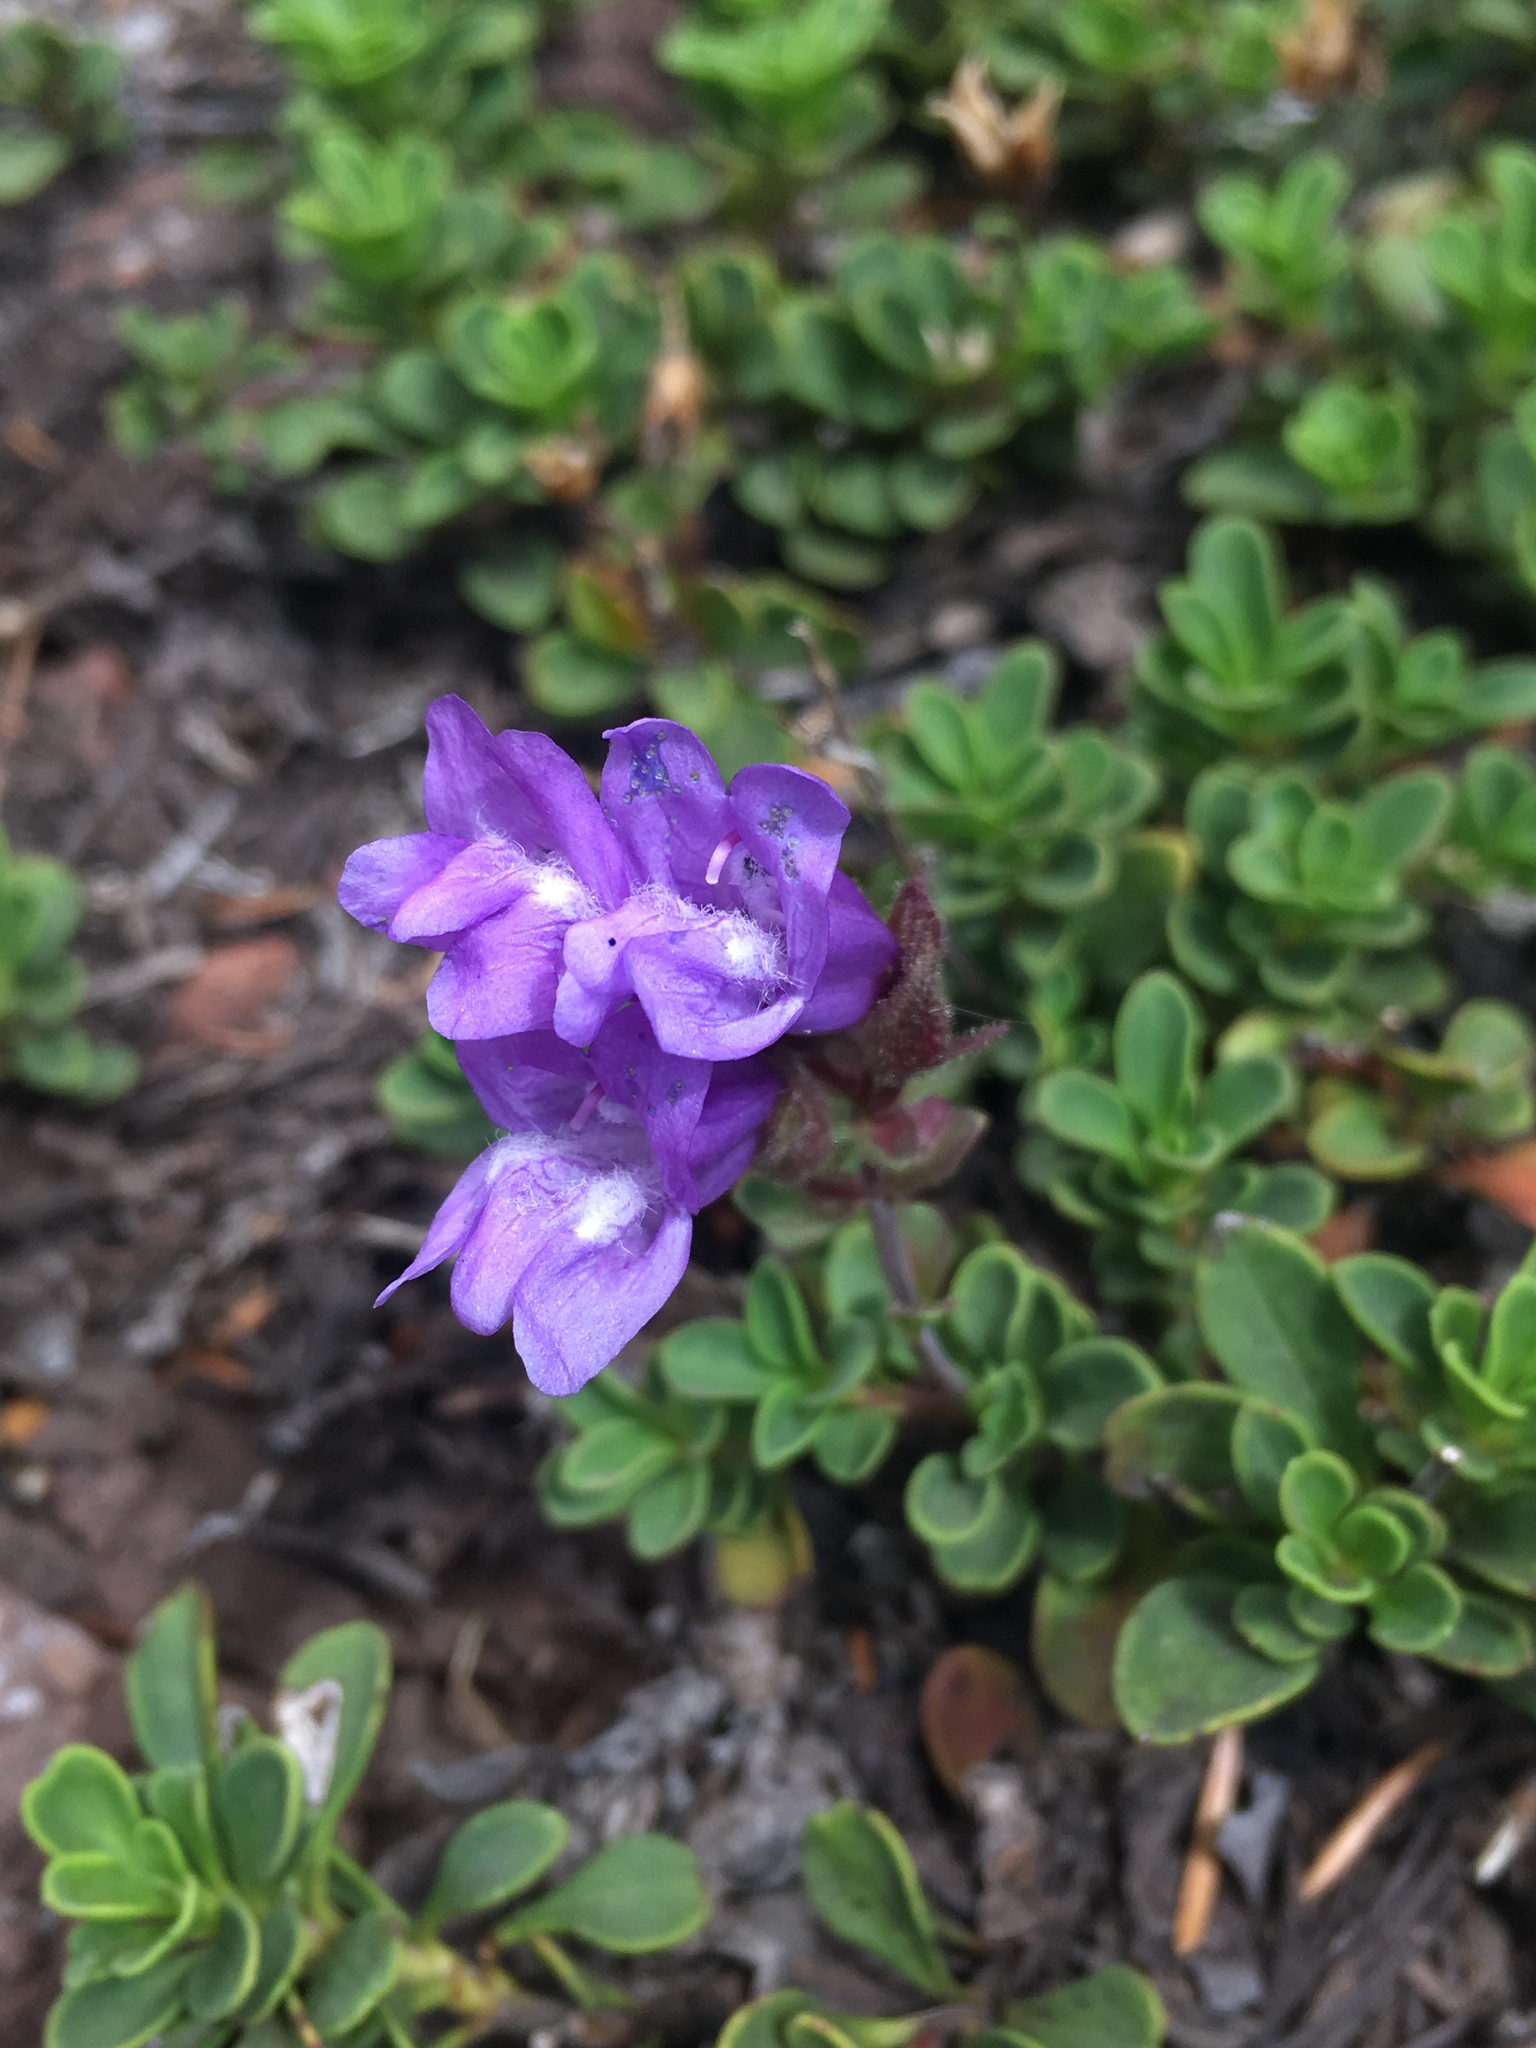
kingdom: Plantae
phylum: Tracheophyta
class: Magnoliopsida
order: Lamiales
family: Plantaginaceae
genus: Penstemon
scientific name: Penstemon davidsonii
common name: Davidson's penstemon
